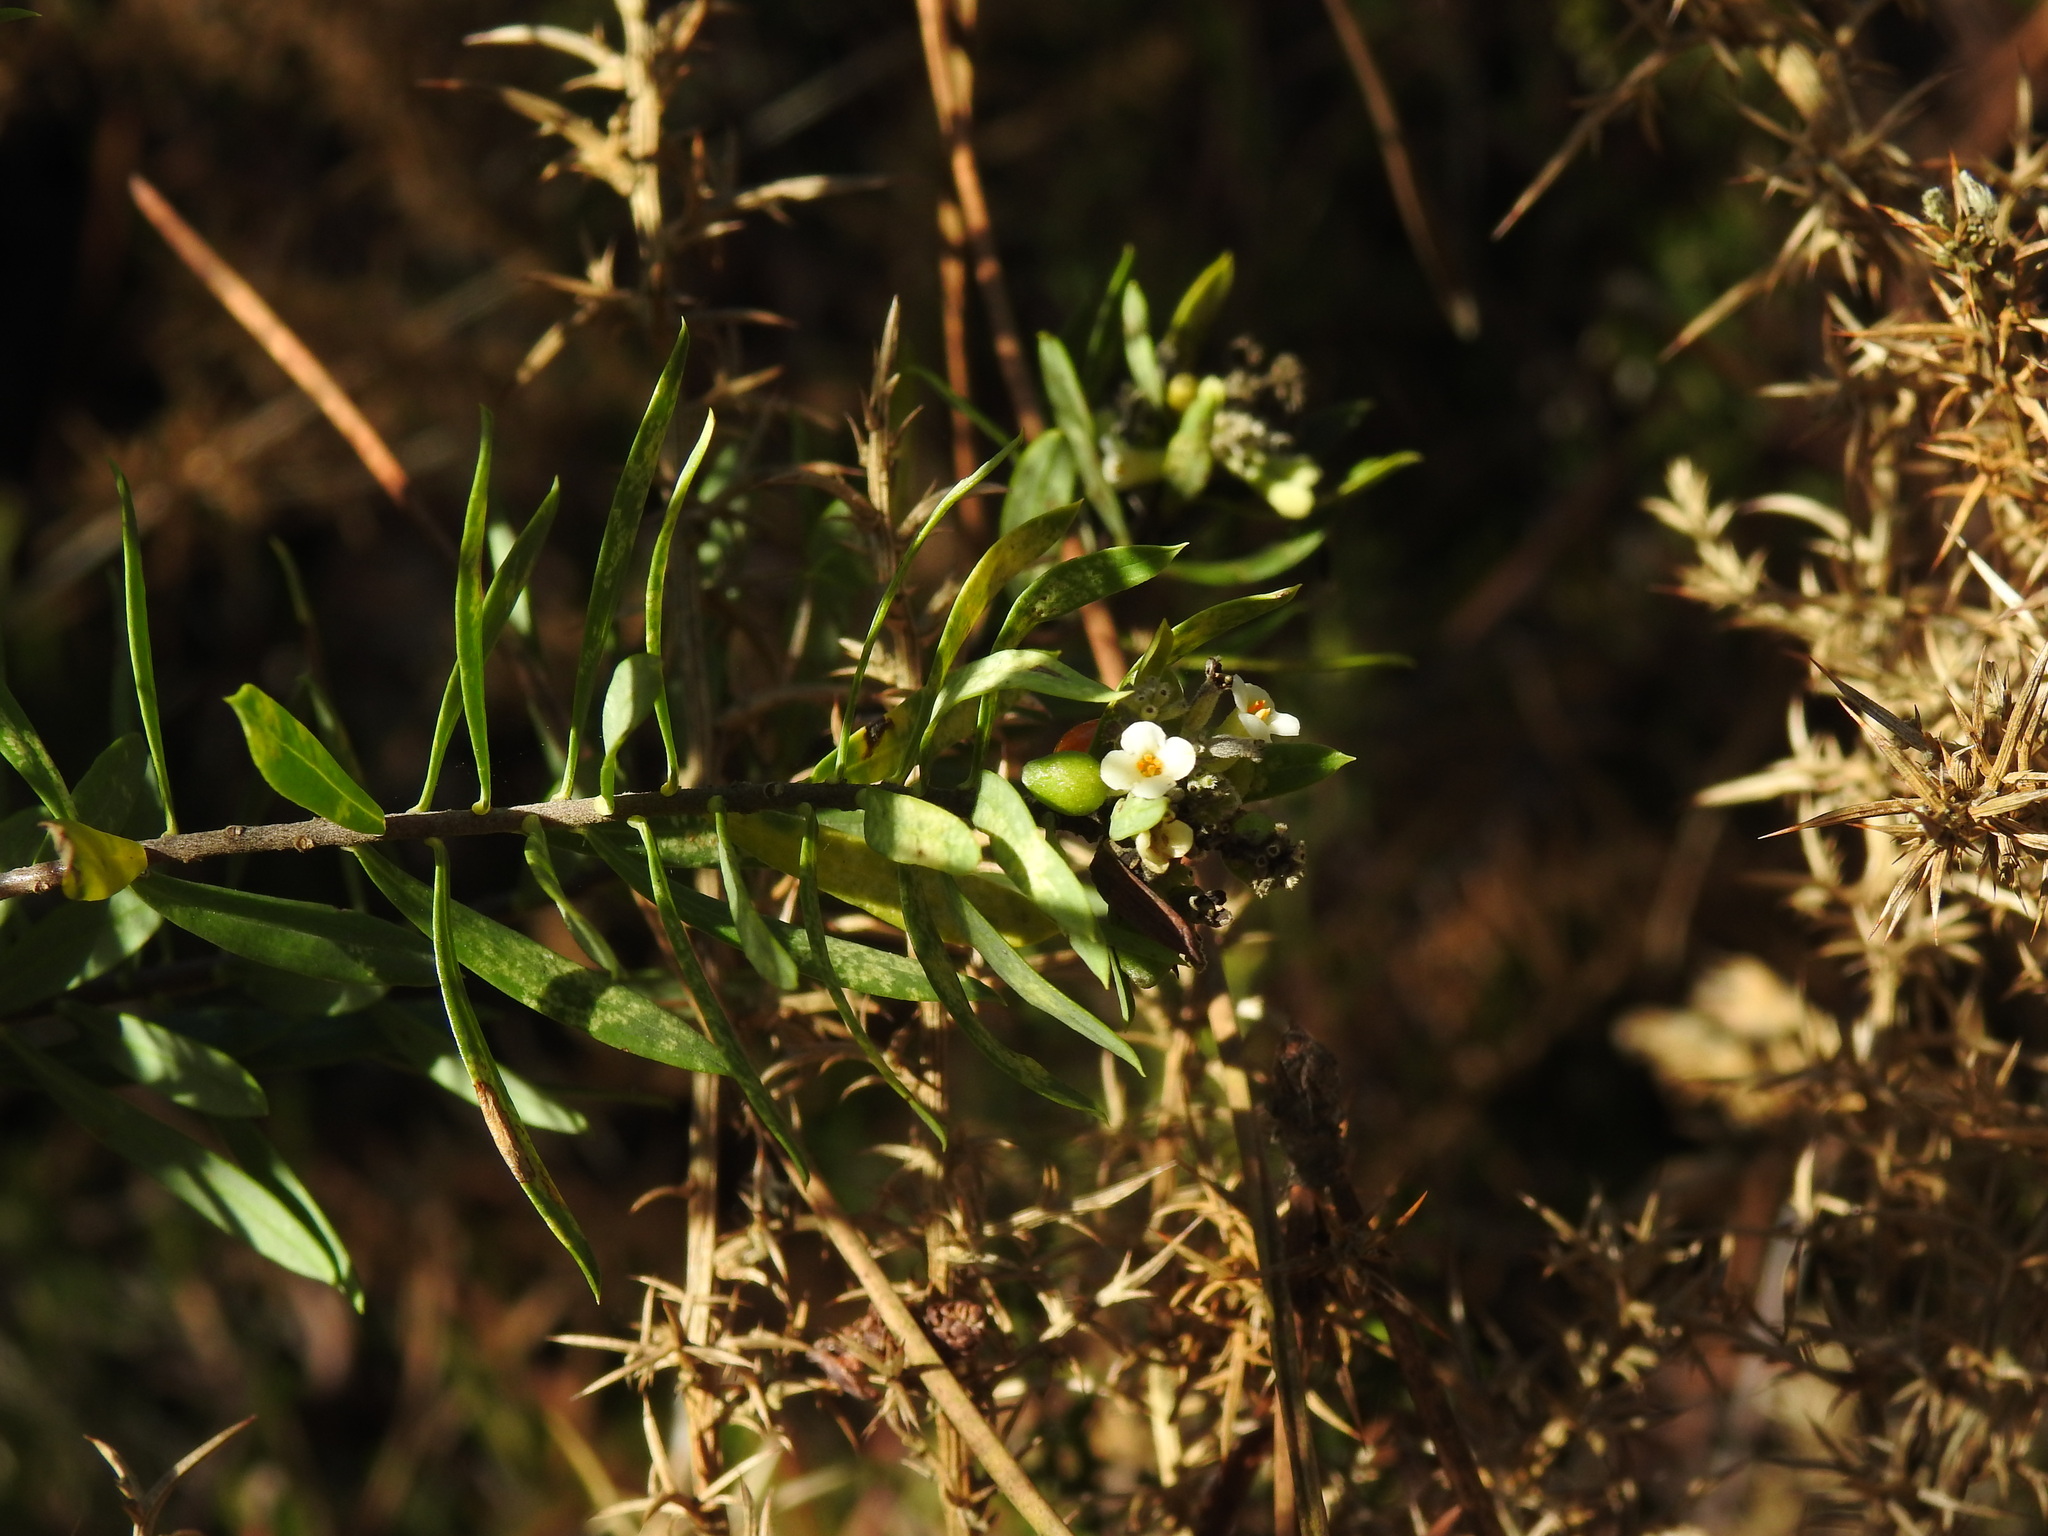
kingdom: Plantae
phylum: Tracheophyta
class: Magnoliopsida
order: Malvales
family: Thymelaeaceae
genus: Daphne
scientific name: Daphne gnidium
